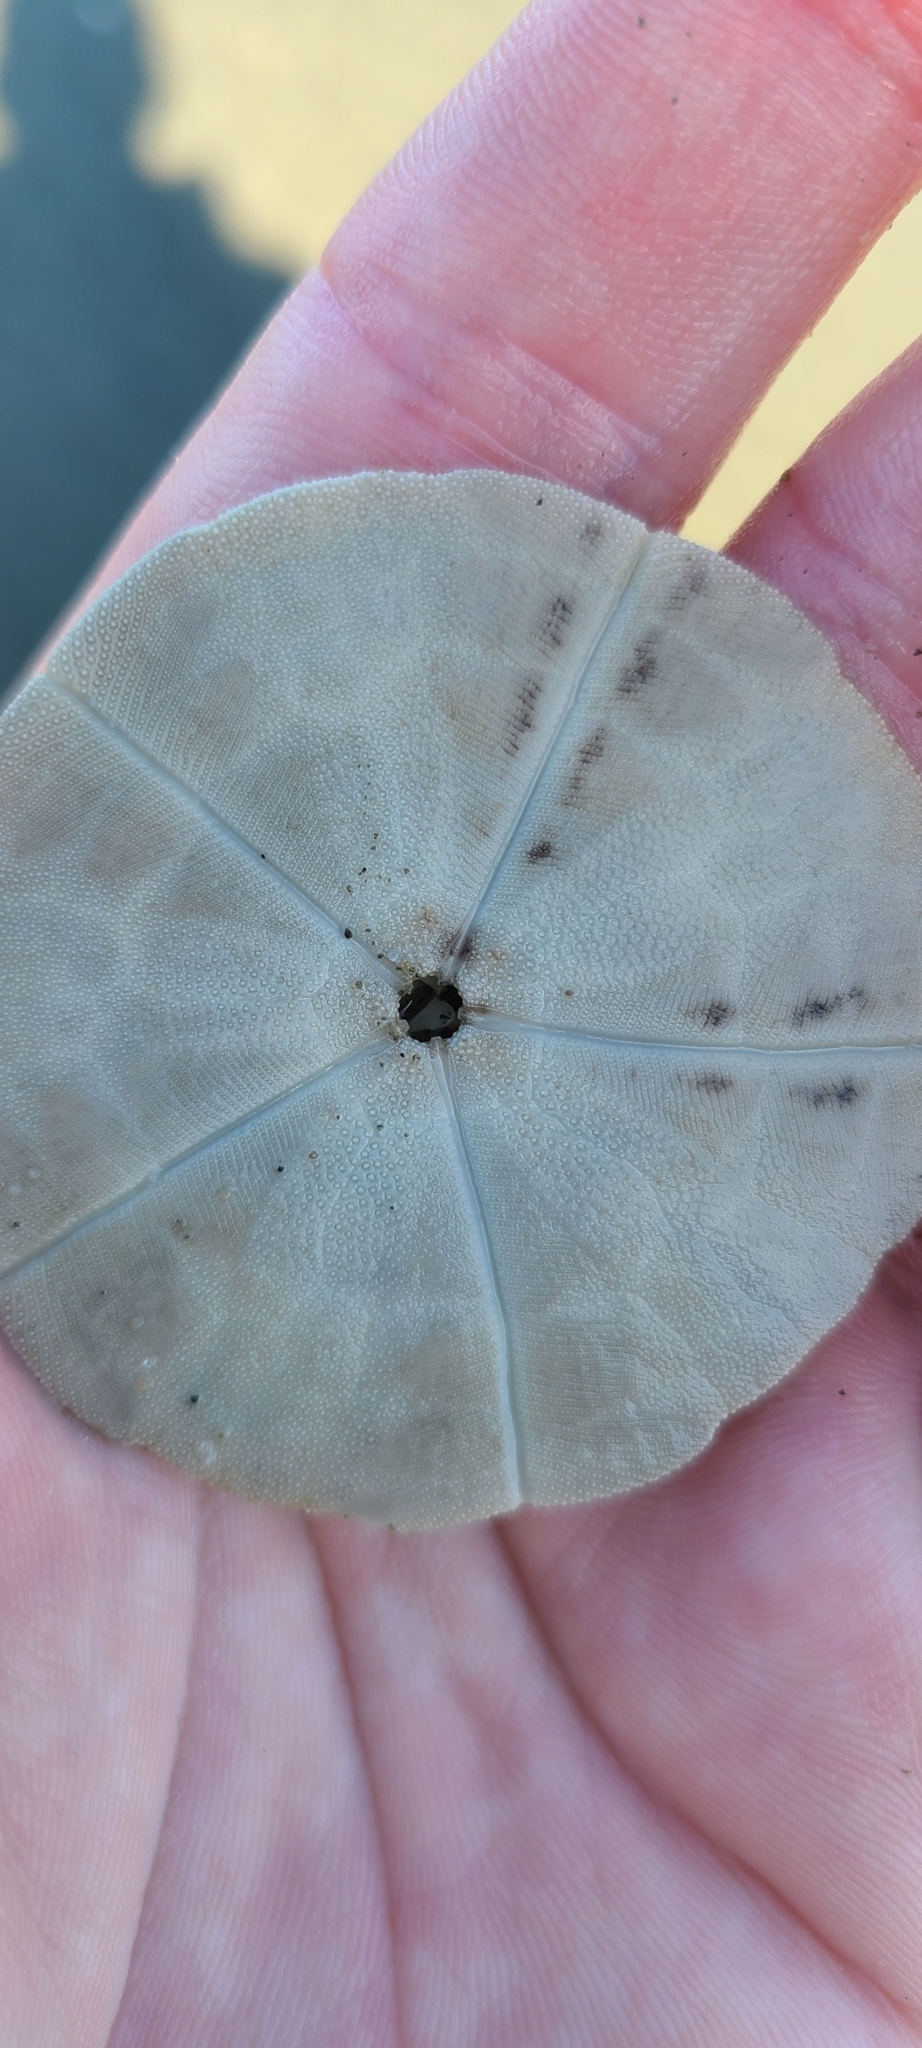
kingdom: Animalia
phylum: Echinodermata
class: Echinoidea
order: Clypeasteroida
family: Clypeasteridae
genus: Fellaster
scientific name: Fellaster zelandiae
